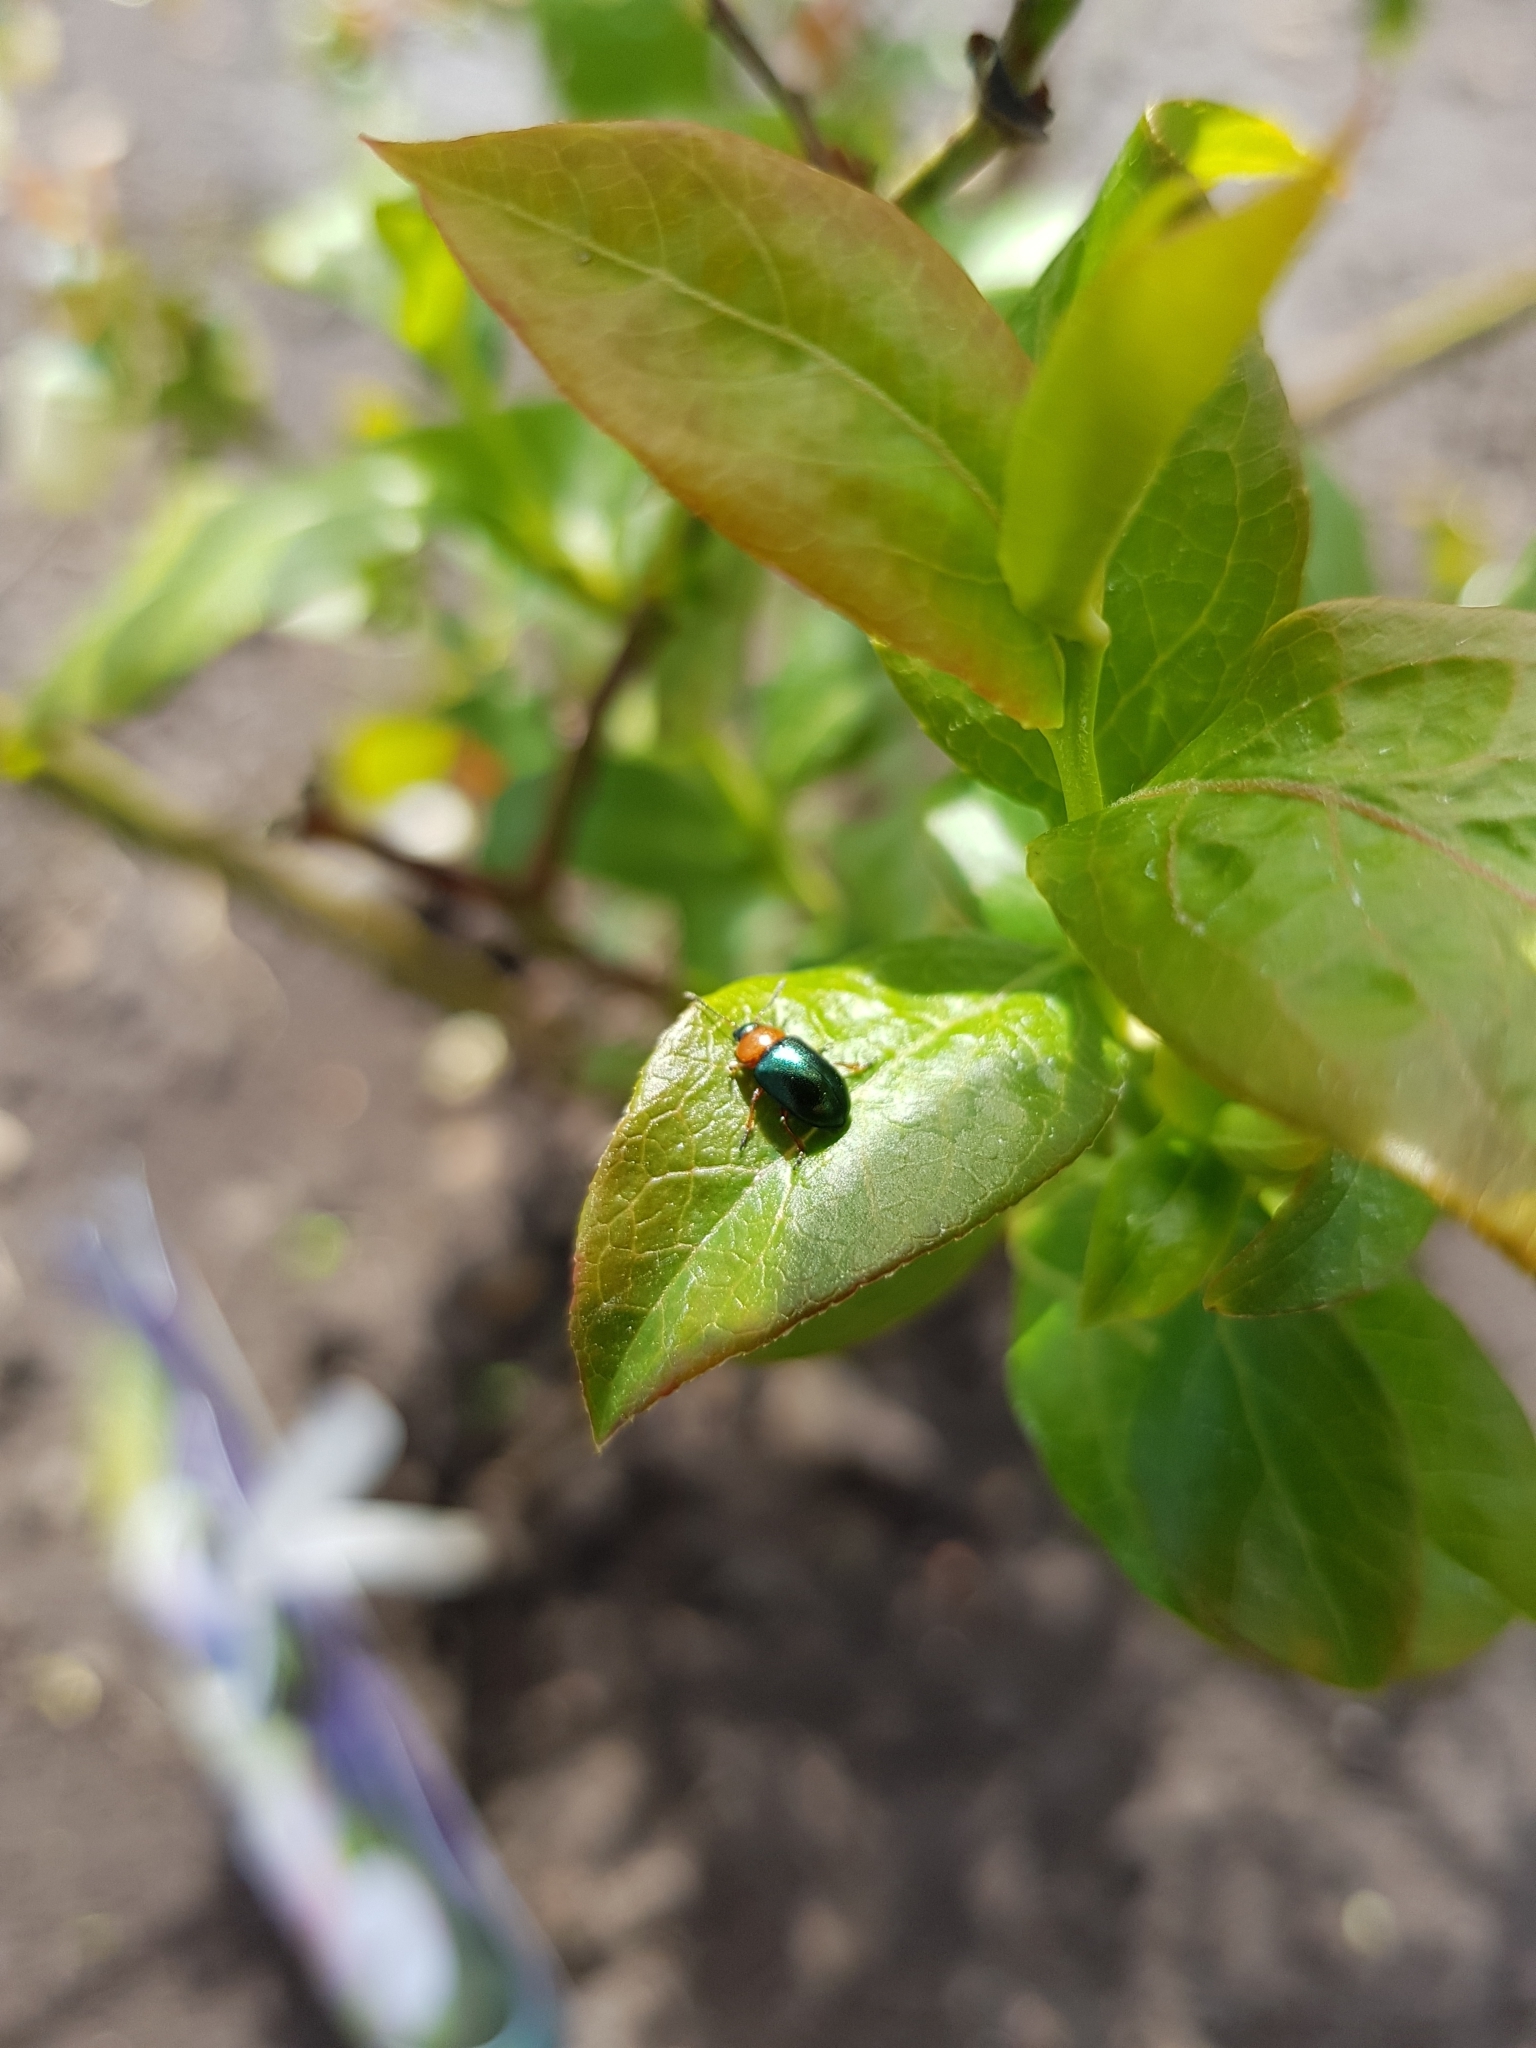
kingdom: Animalia
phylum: Arthropoda
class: Insecta
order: Coleoptera
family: Chrysomelidae
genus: Gastrophysa
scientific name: Gastrophysa polygoni
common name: Knotweed leaf beetle
